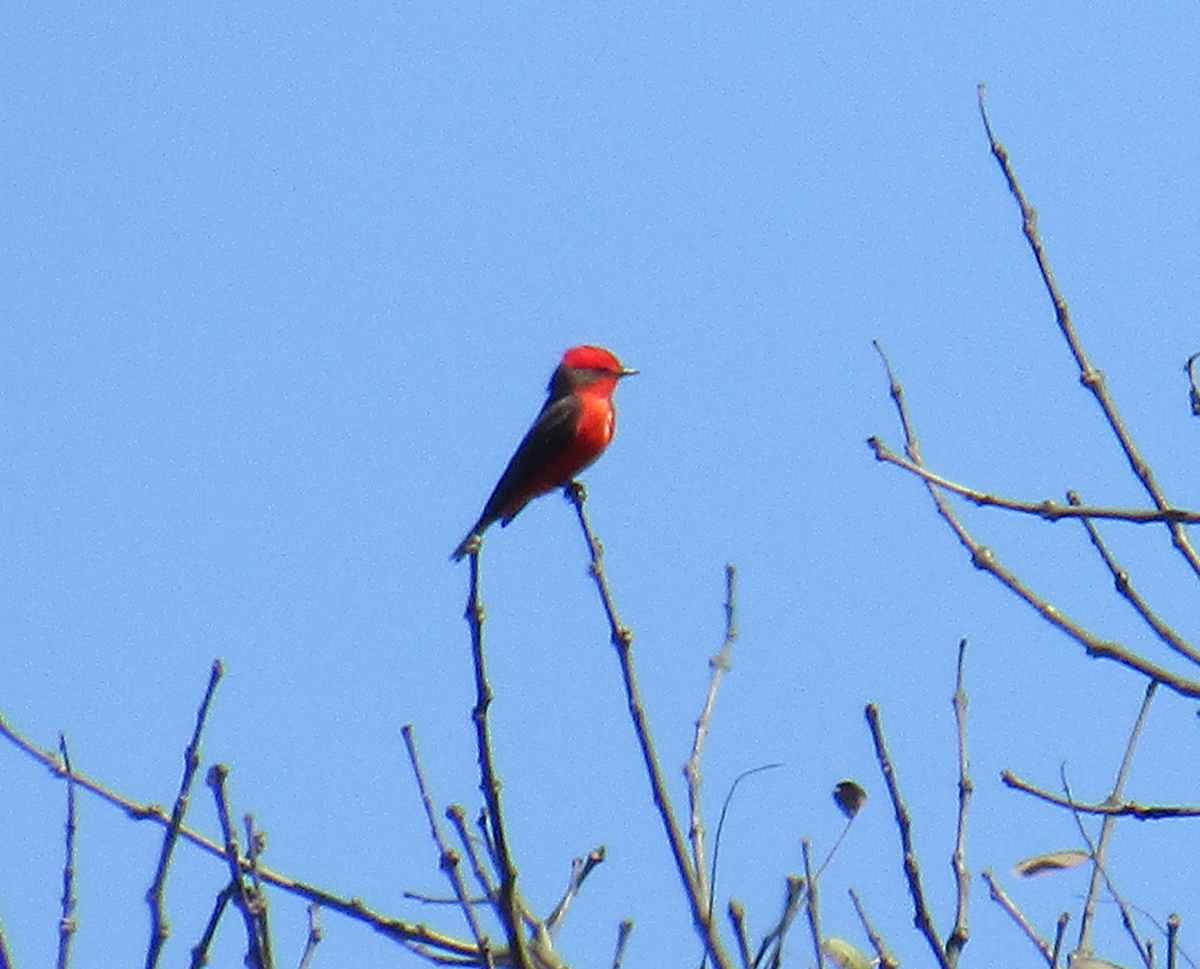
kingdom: Animalia
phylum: Chordata
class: Aves
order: Passeriformes
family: Tyrannidae
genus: Pyrocephalus
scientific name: Pyrocephalus rubinus
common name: Vermilion flycatcher
